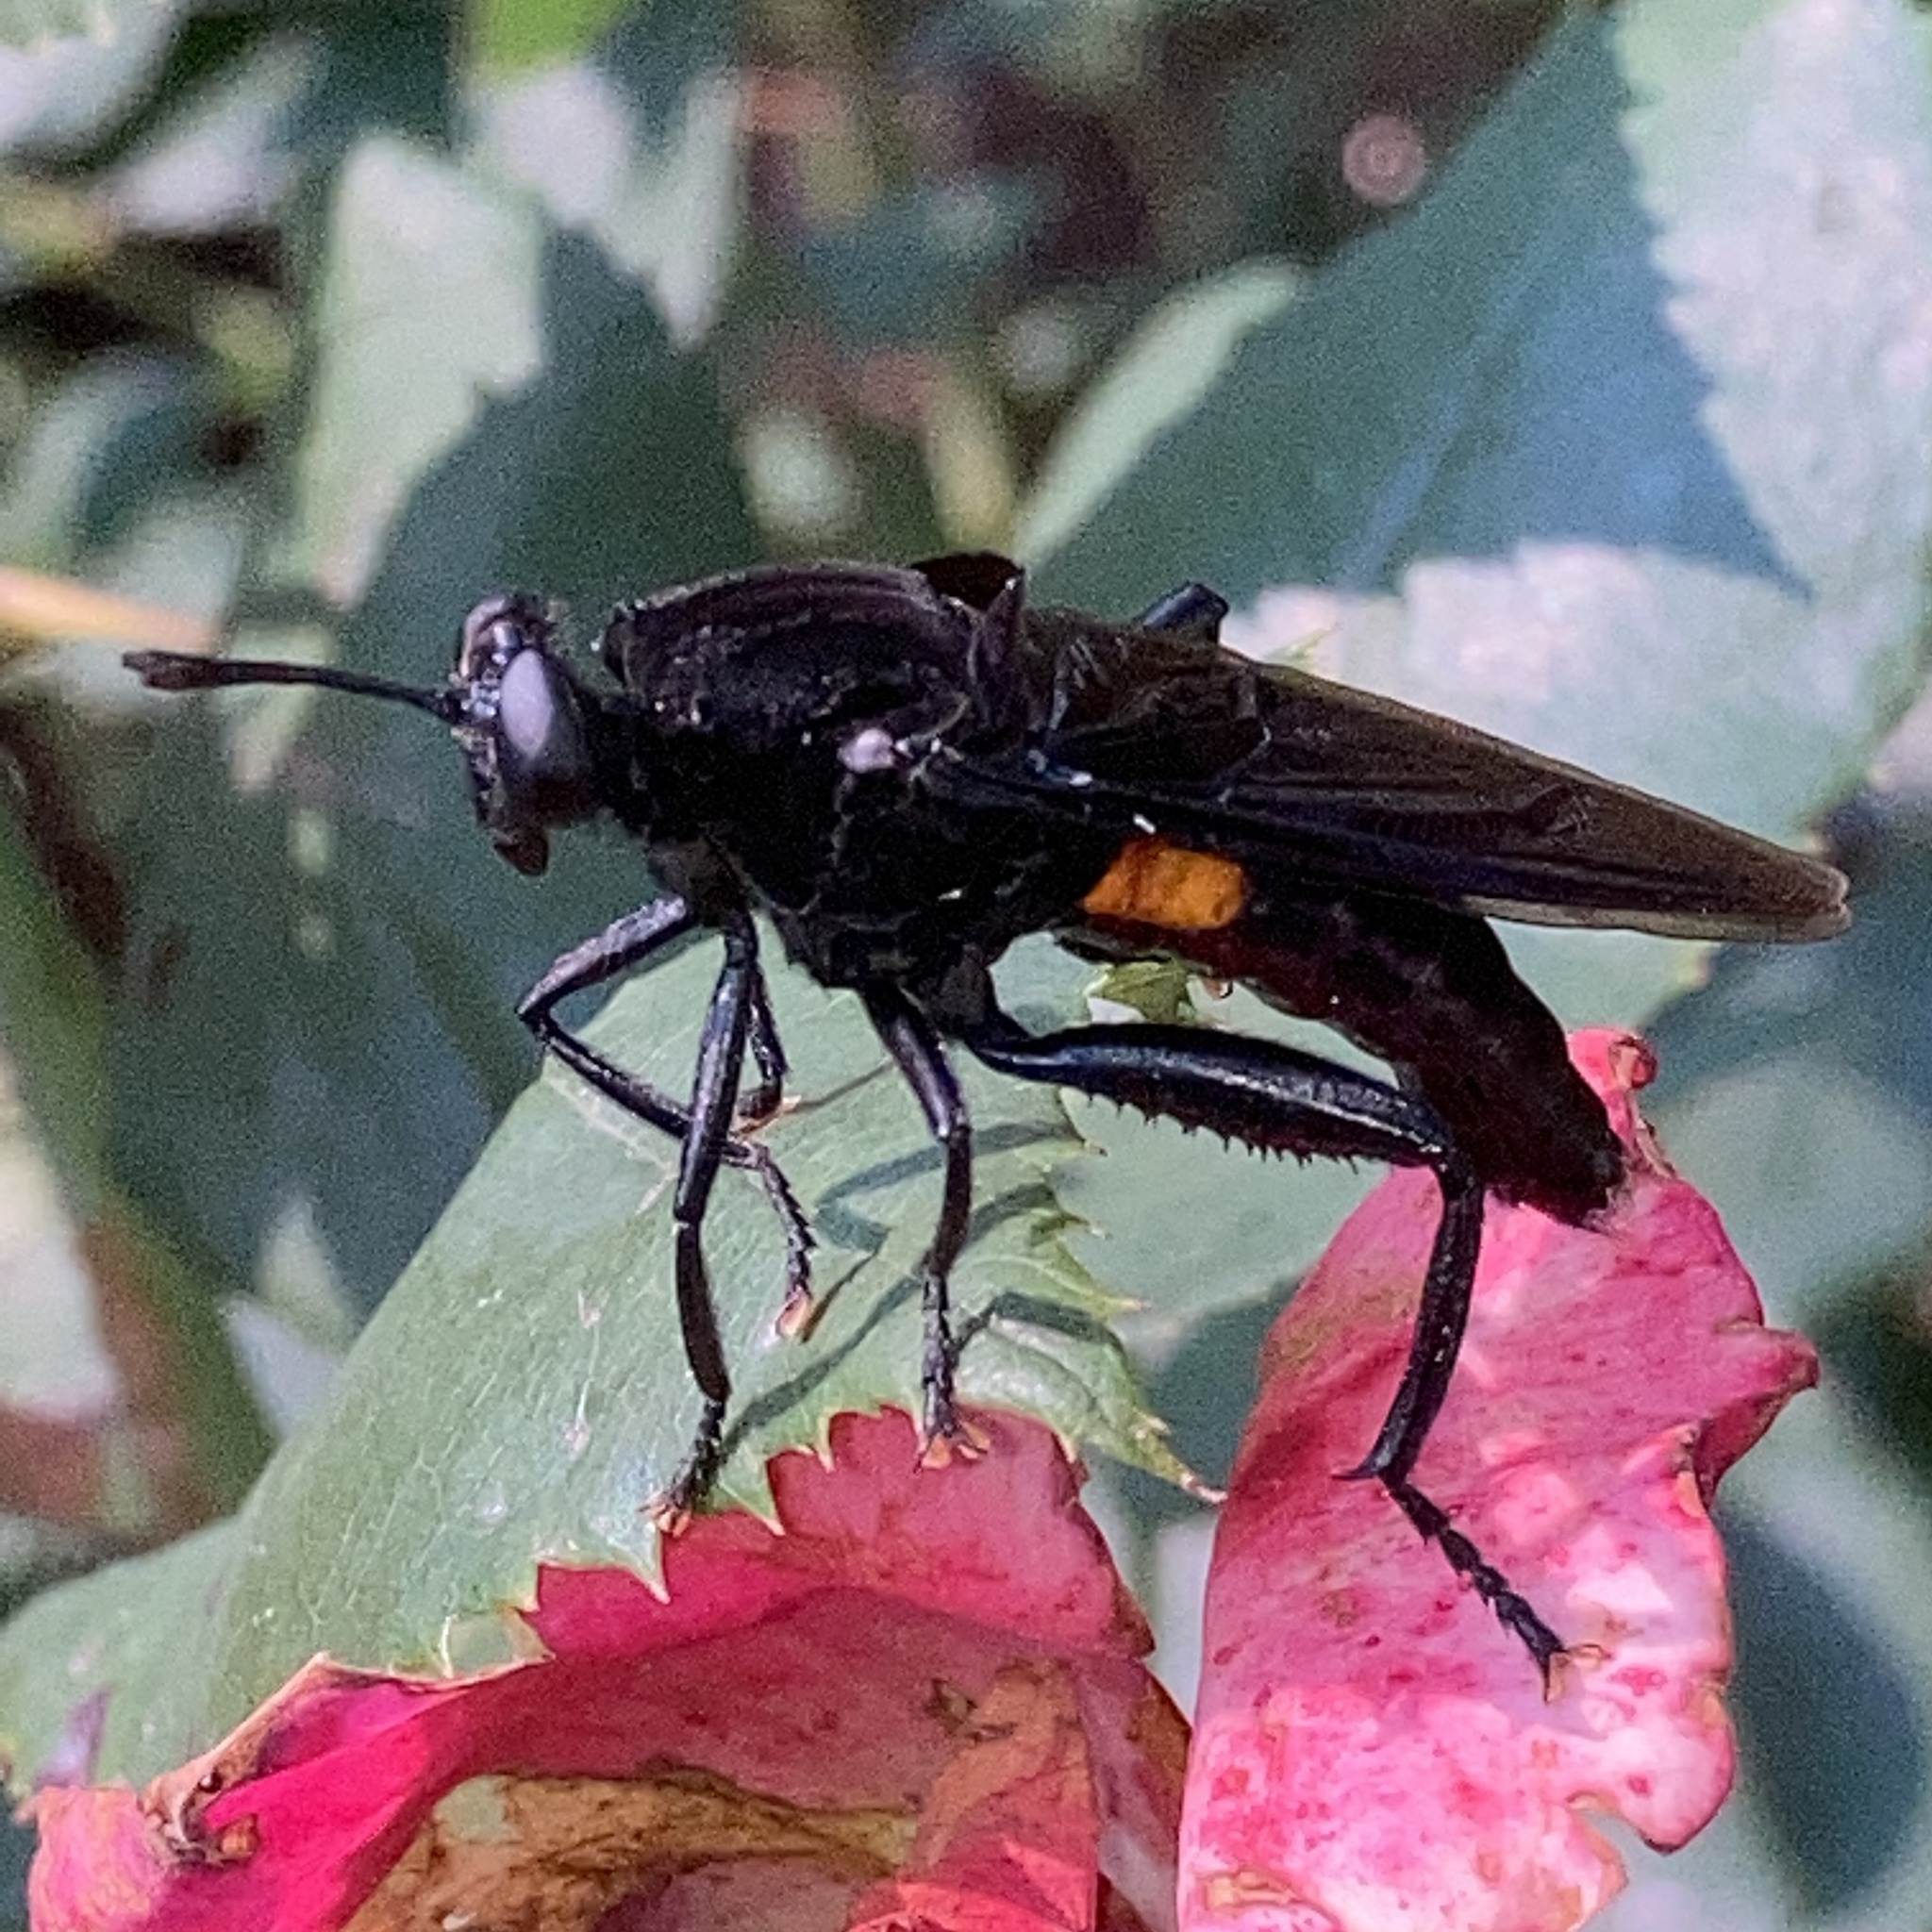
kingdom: Animalia
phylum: Arthropoda
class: Insecta
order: Diptera
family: Mydidae
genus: Mydas
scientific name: Mydas clavatus
